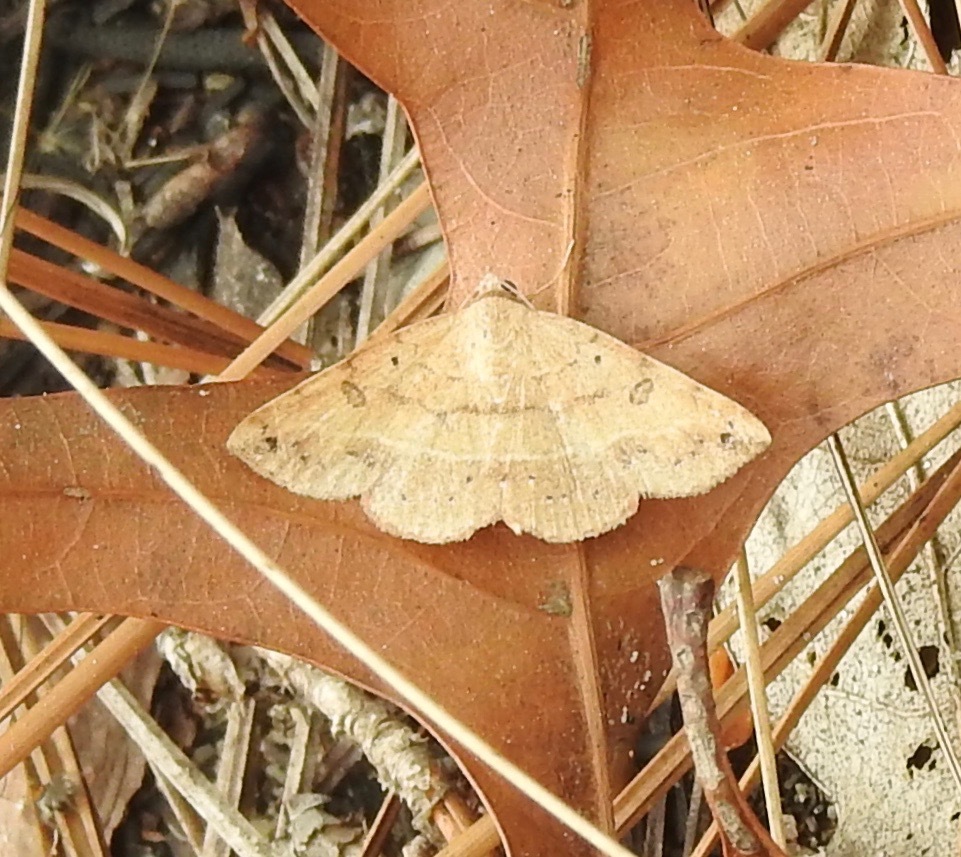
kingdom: Animalia
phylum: Arthropoda
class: Insecta
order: Lepidoptera
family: Erebidae
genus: Hemeroplanis
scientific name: Hemeroplanis scopulepes
